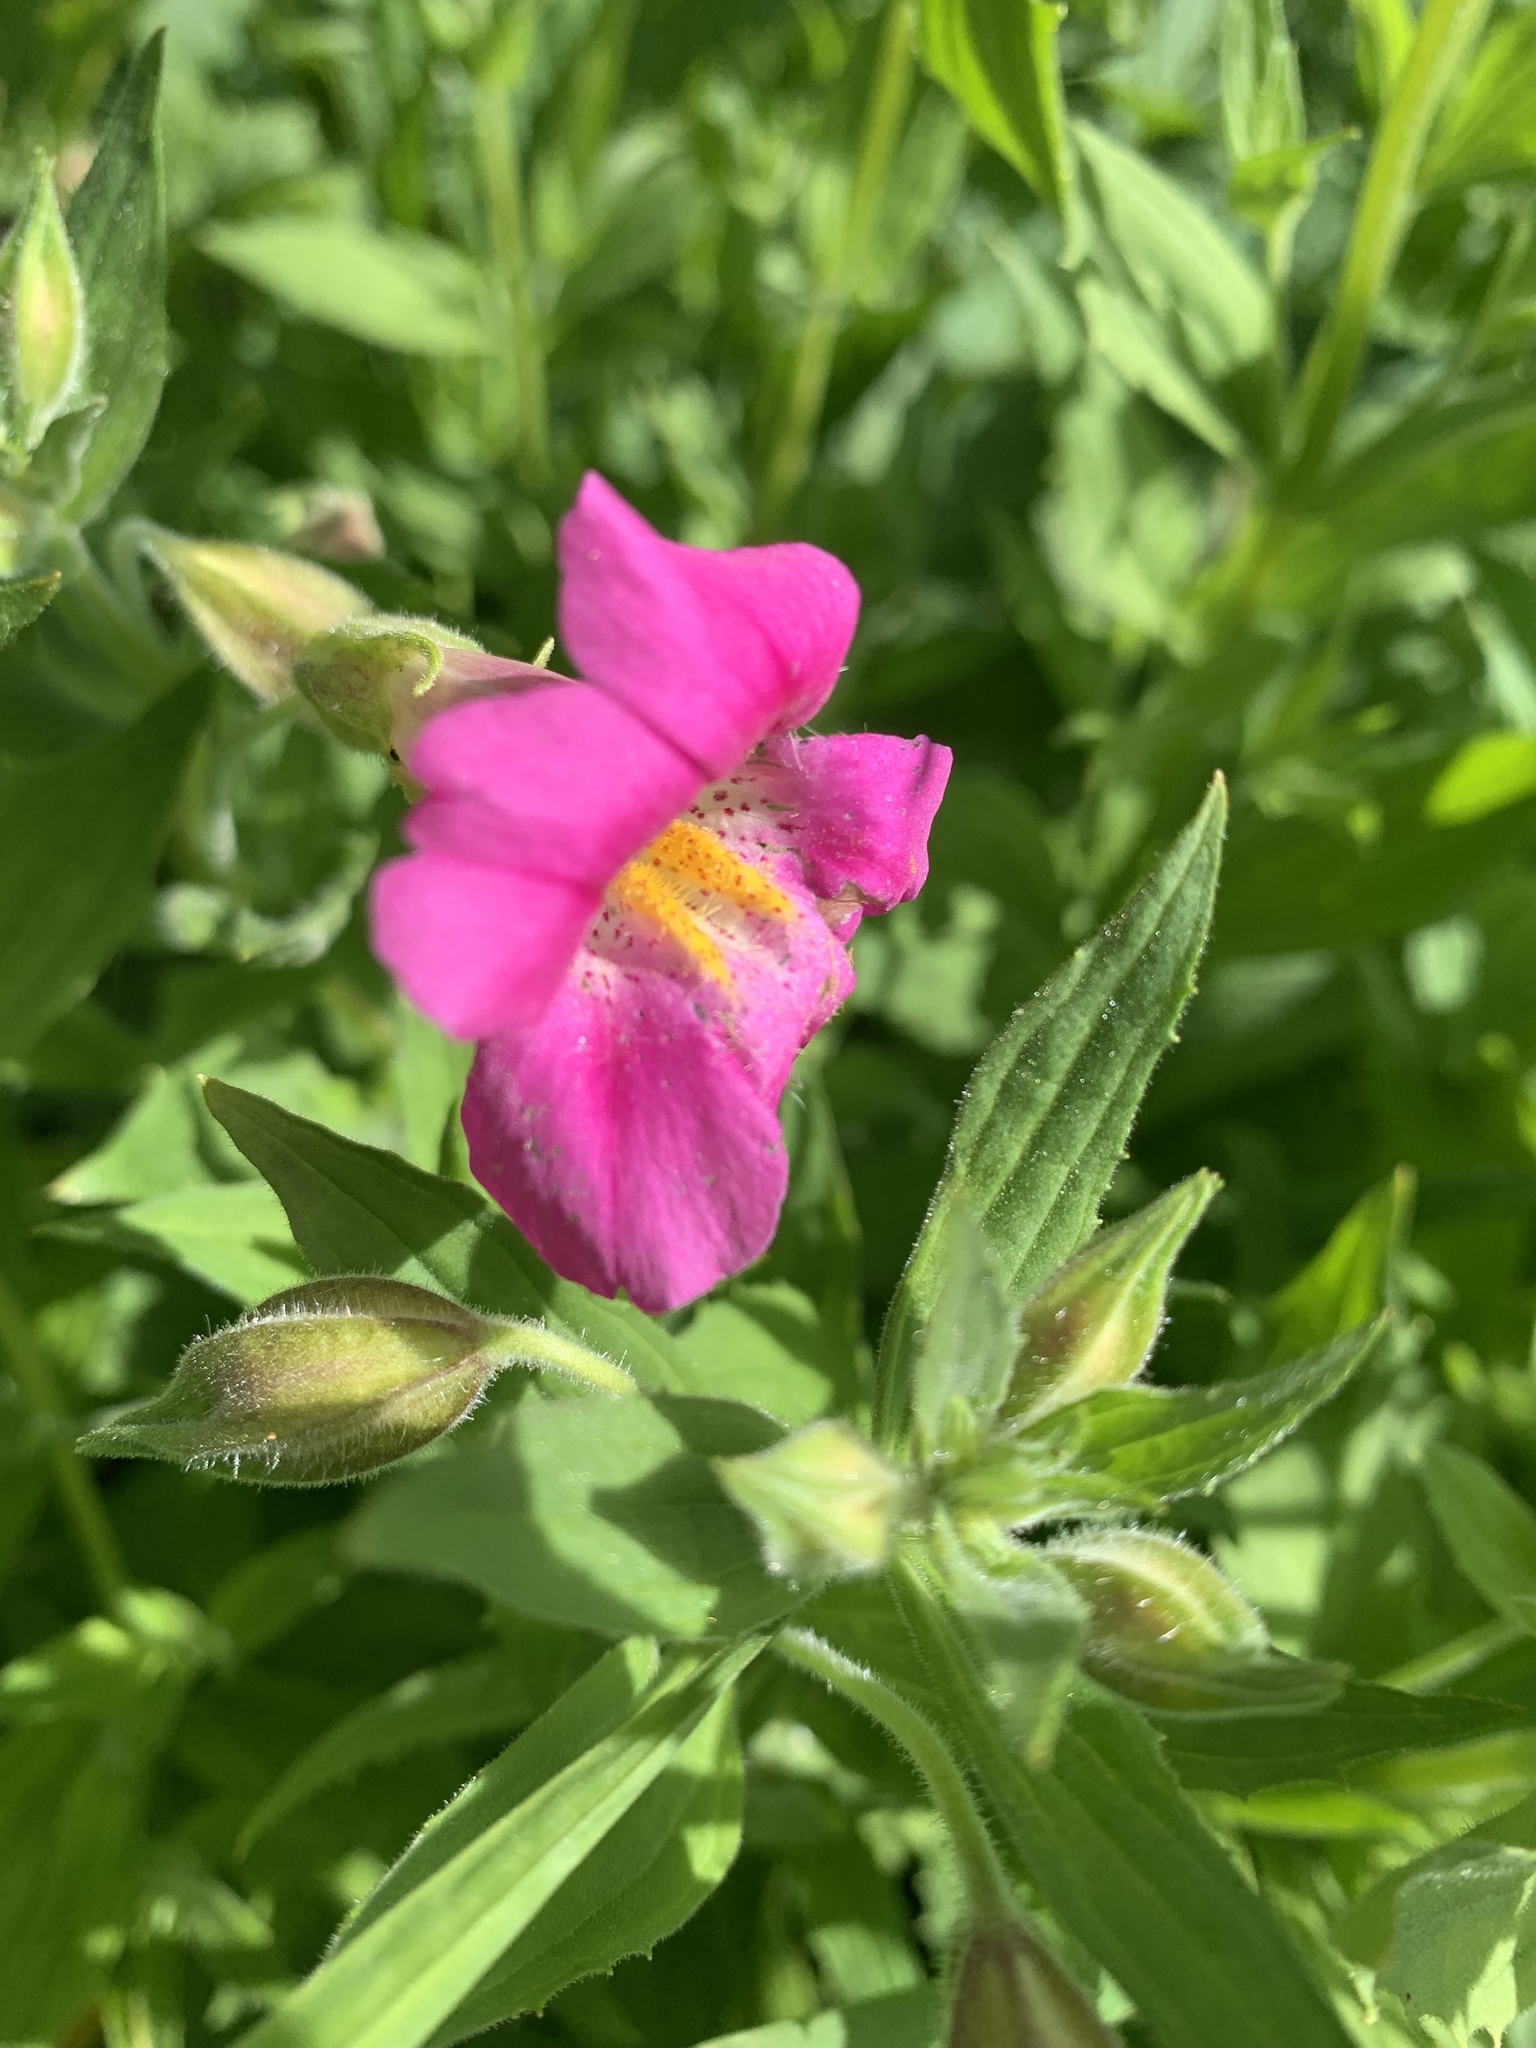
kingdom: Plantae
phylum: Tracheophyta
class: Magnoliopsida
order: Lamiales
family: Phrymaceae
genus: Erythranthe
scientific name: Erythranthe lewisii
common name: Lewis's monkey-flower
